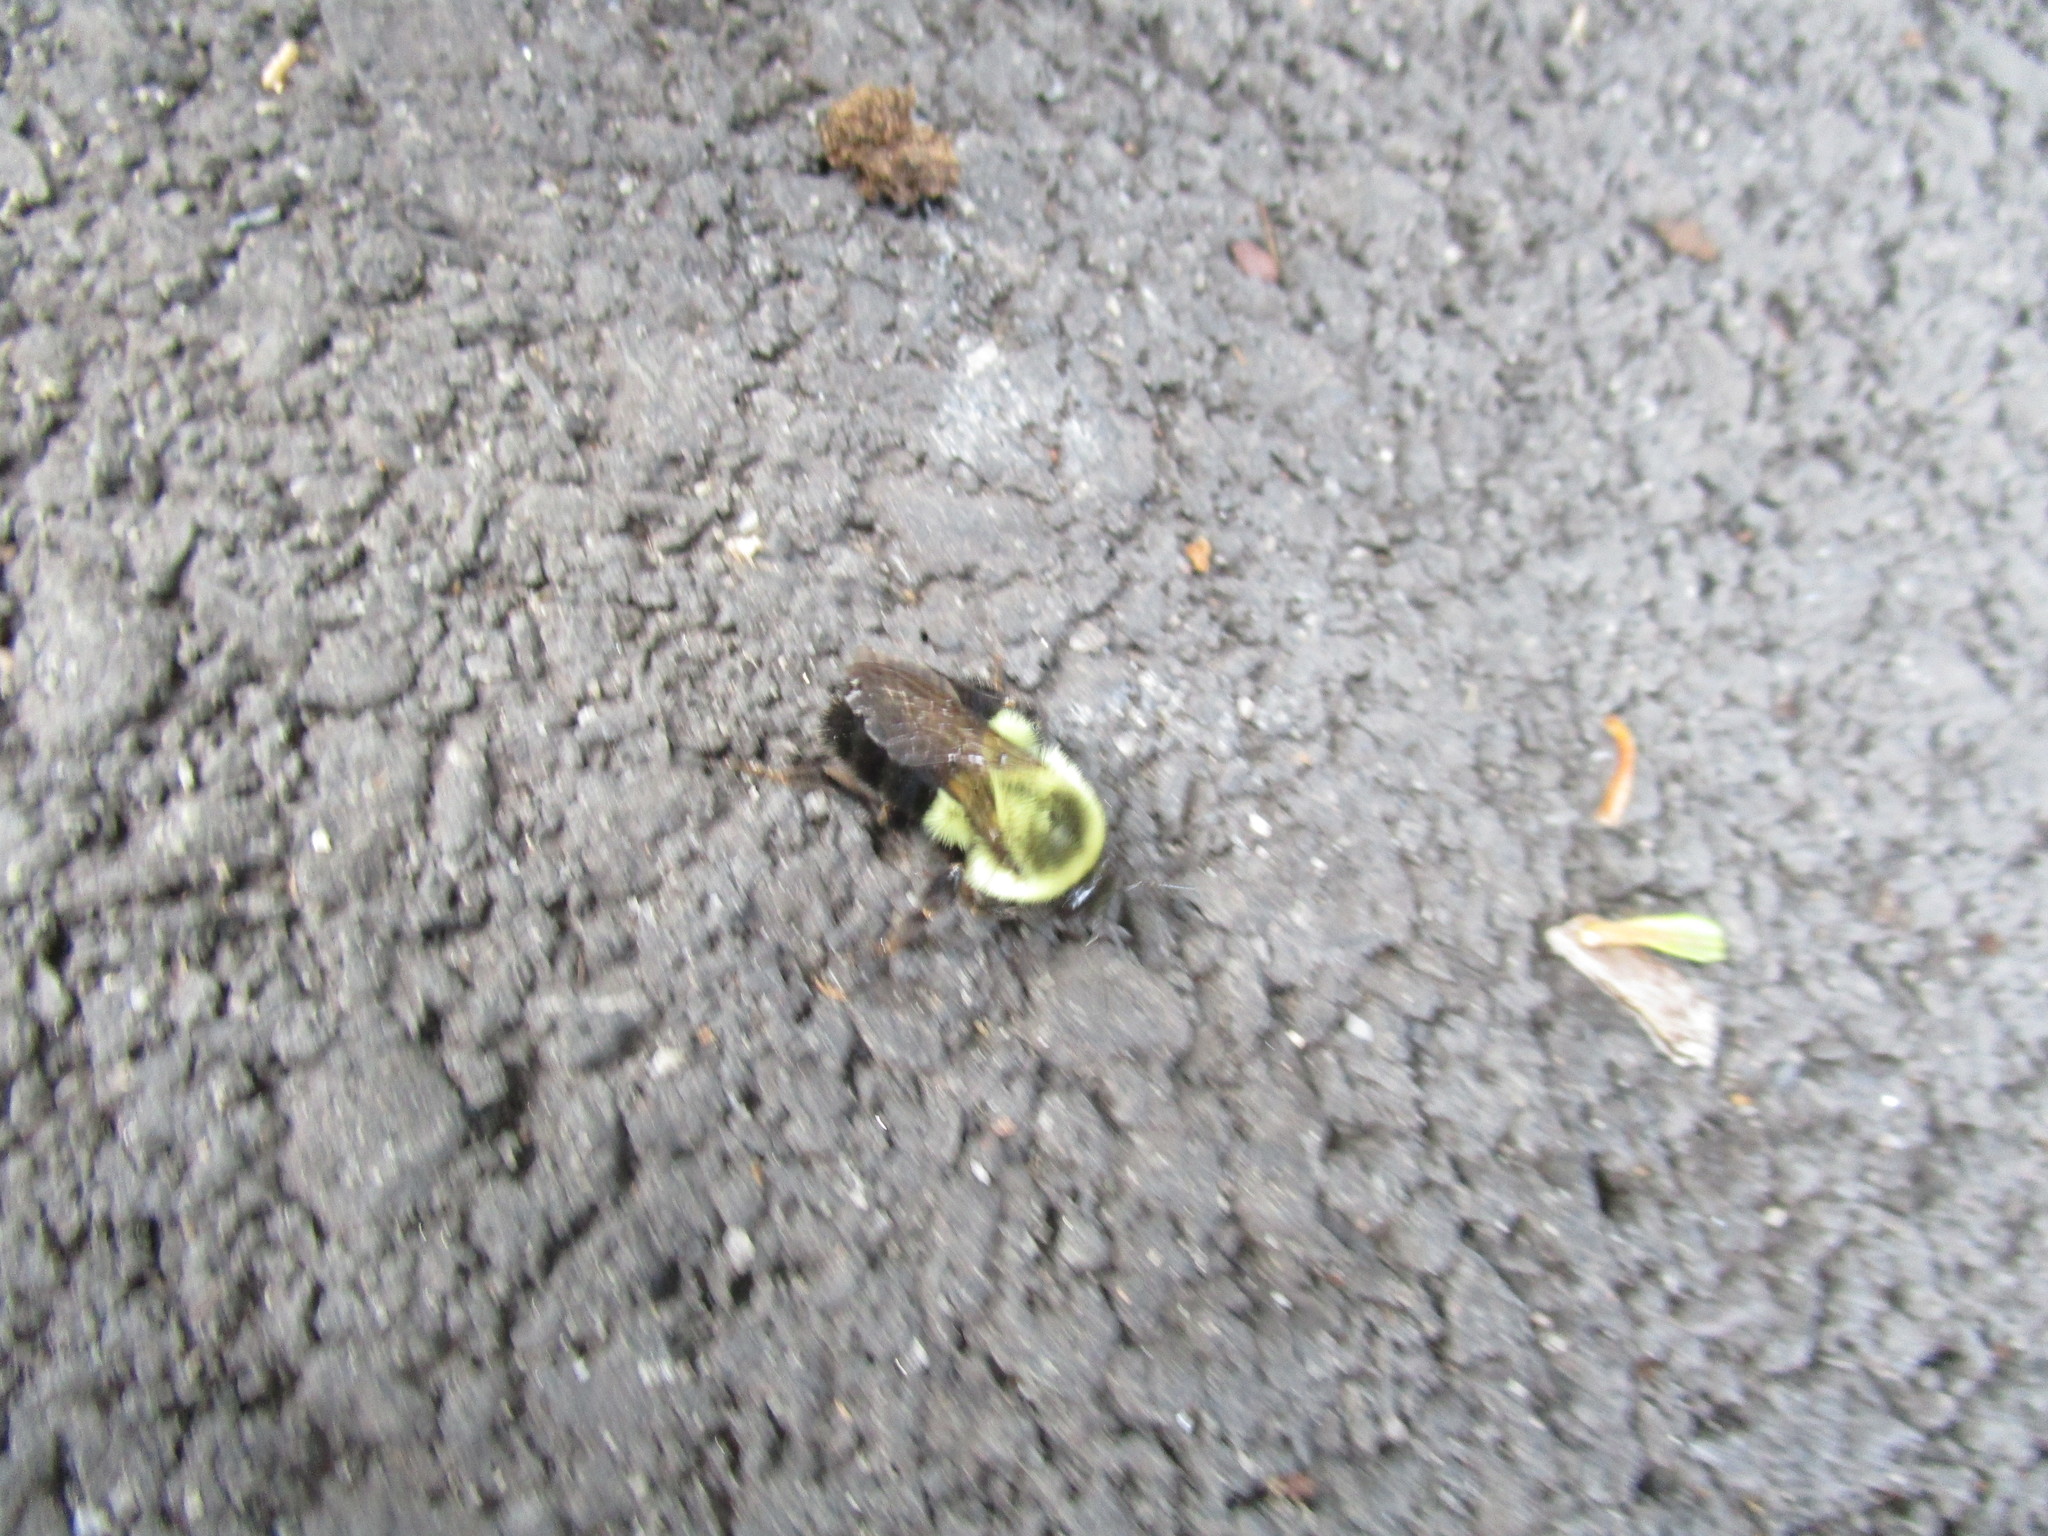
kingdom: Animalia
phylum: Arthropoda
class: Insecta
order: Hymenoptera
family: Apidae
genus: Bombus
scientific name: Bombus impatiens
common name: Common eastern bumble bee
